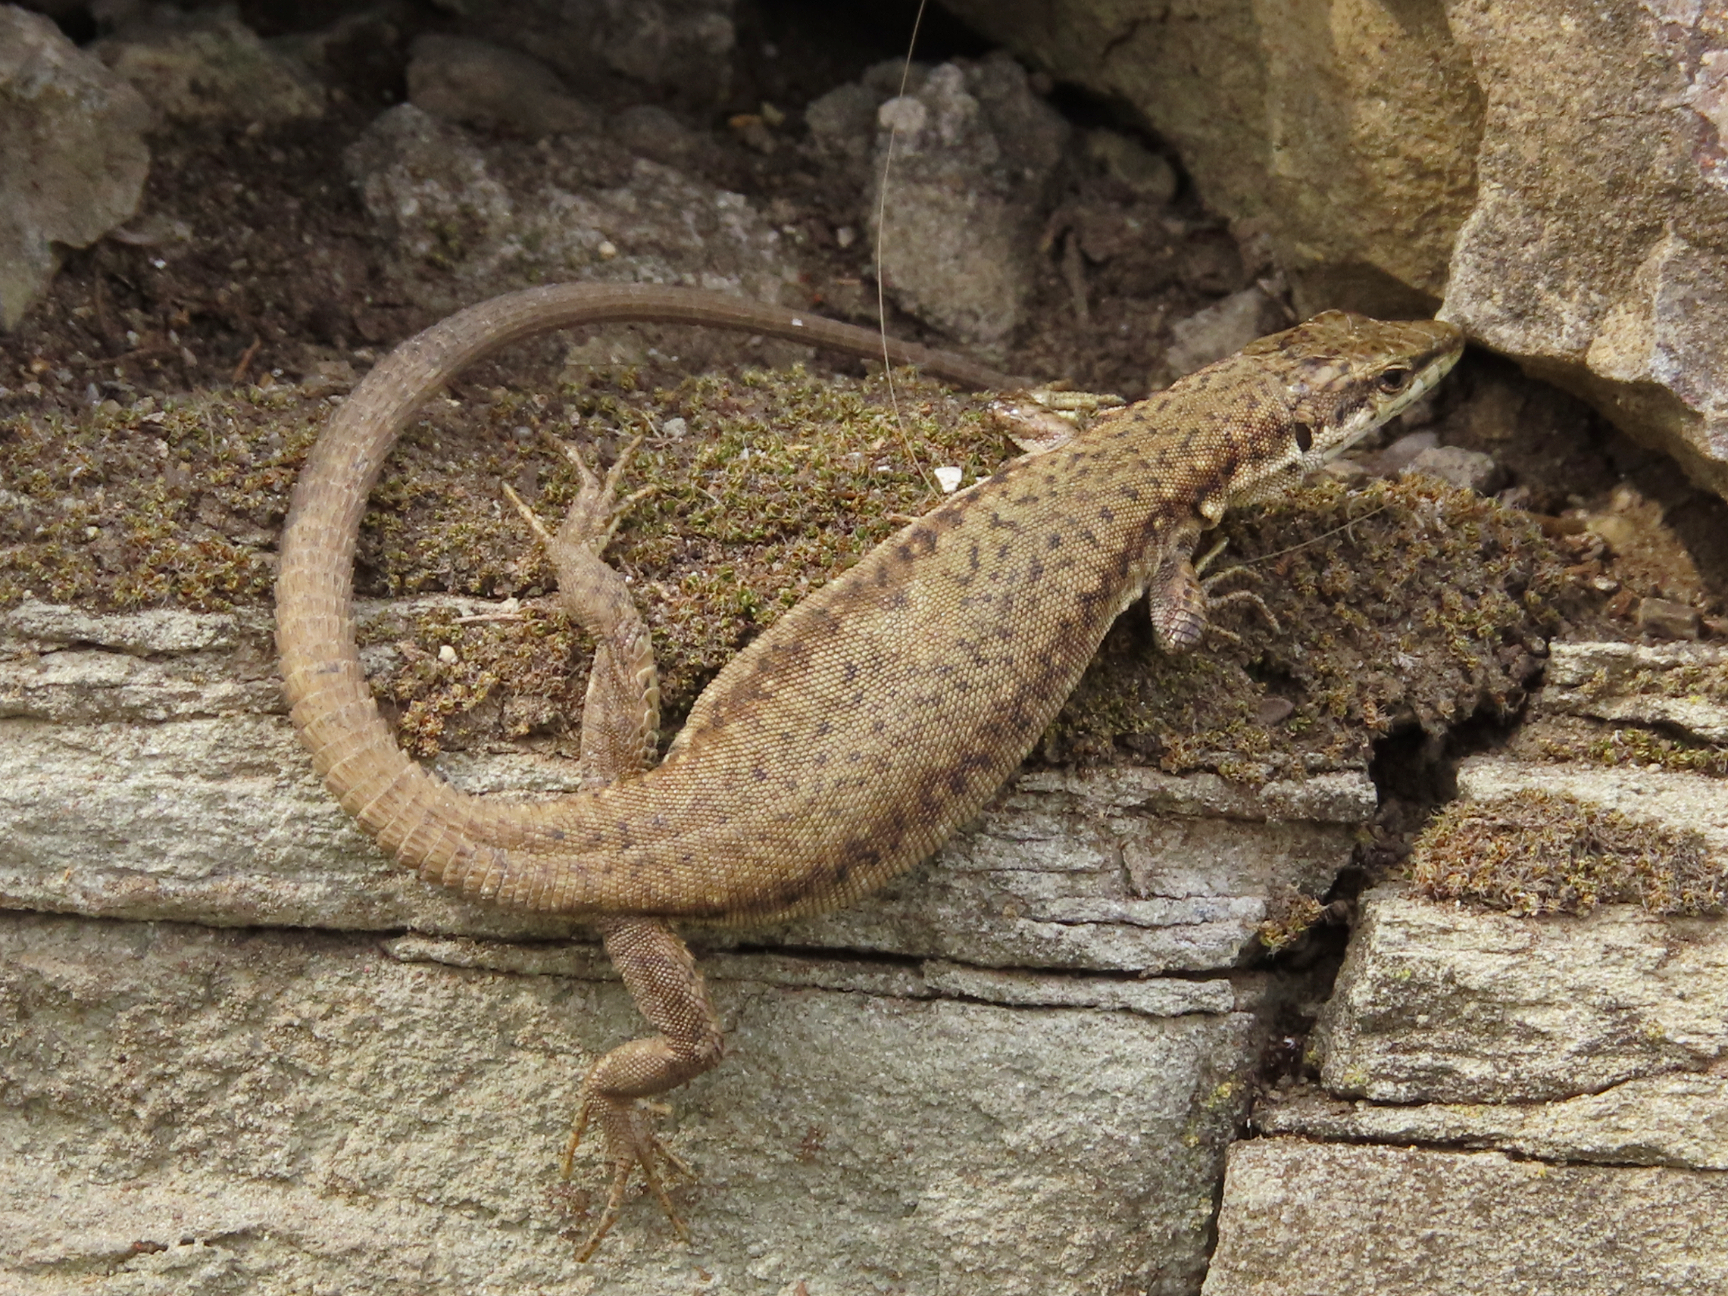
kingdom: Animalia
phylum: Chordata
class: Squamata
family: Lacertidae
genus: Darevskia
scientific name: Darevskia portschinskii
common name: River kura lizard
